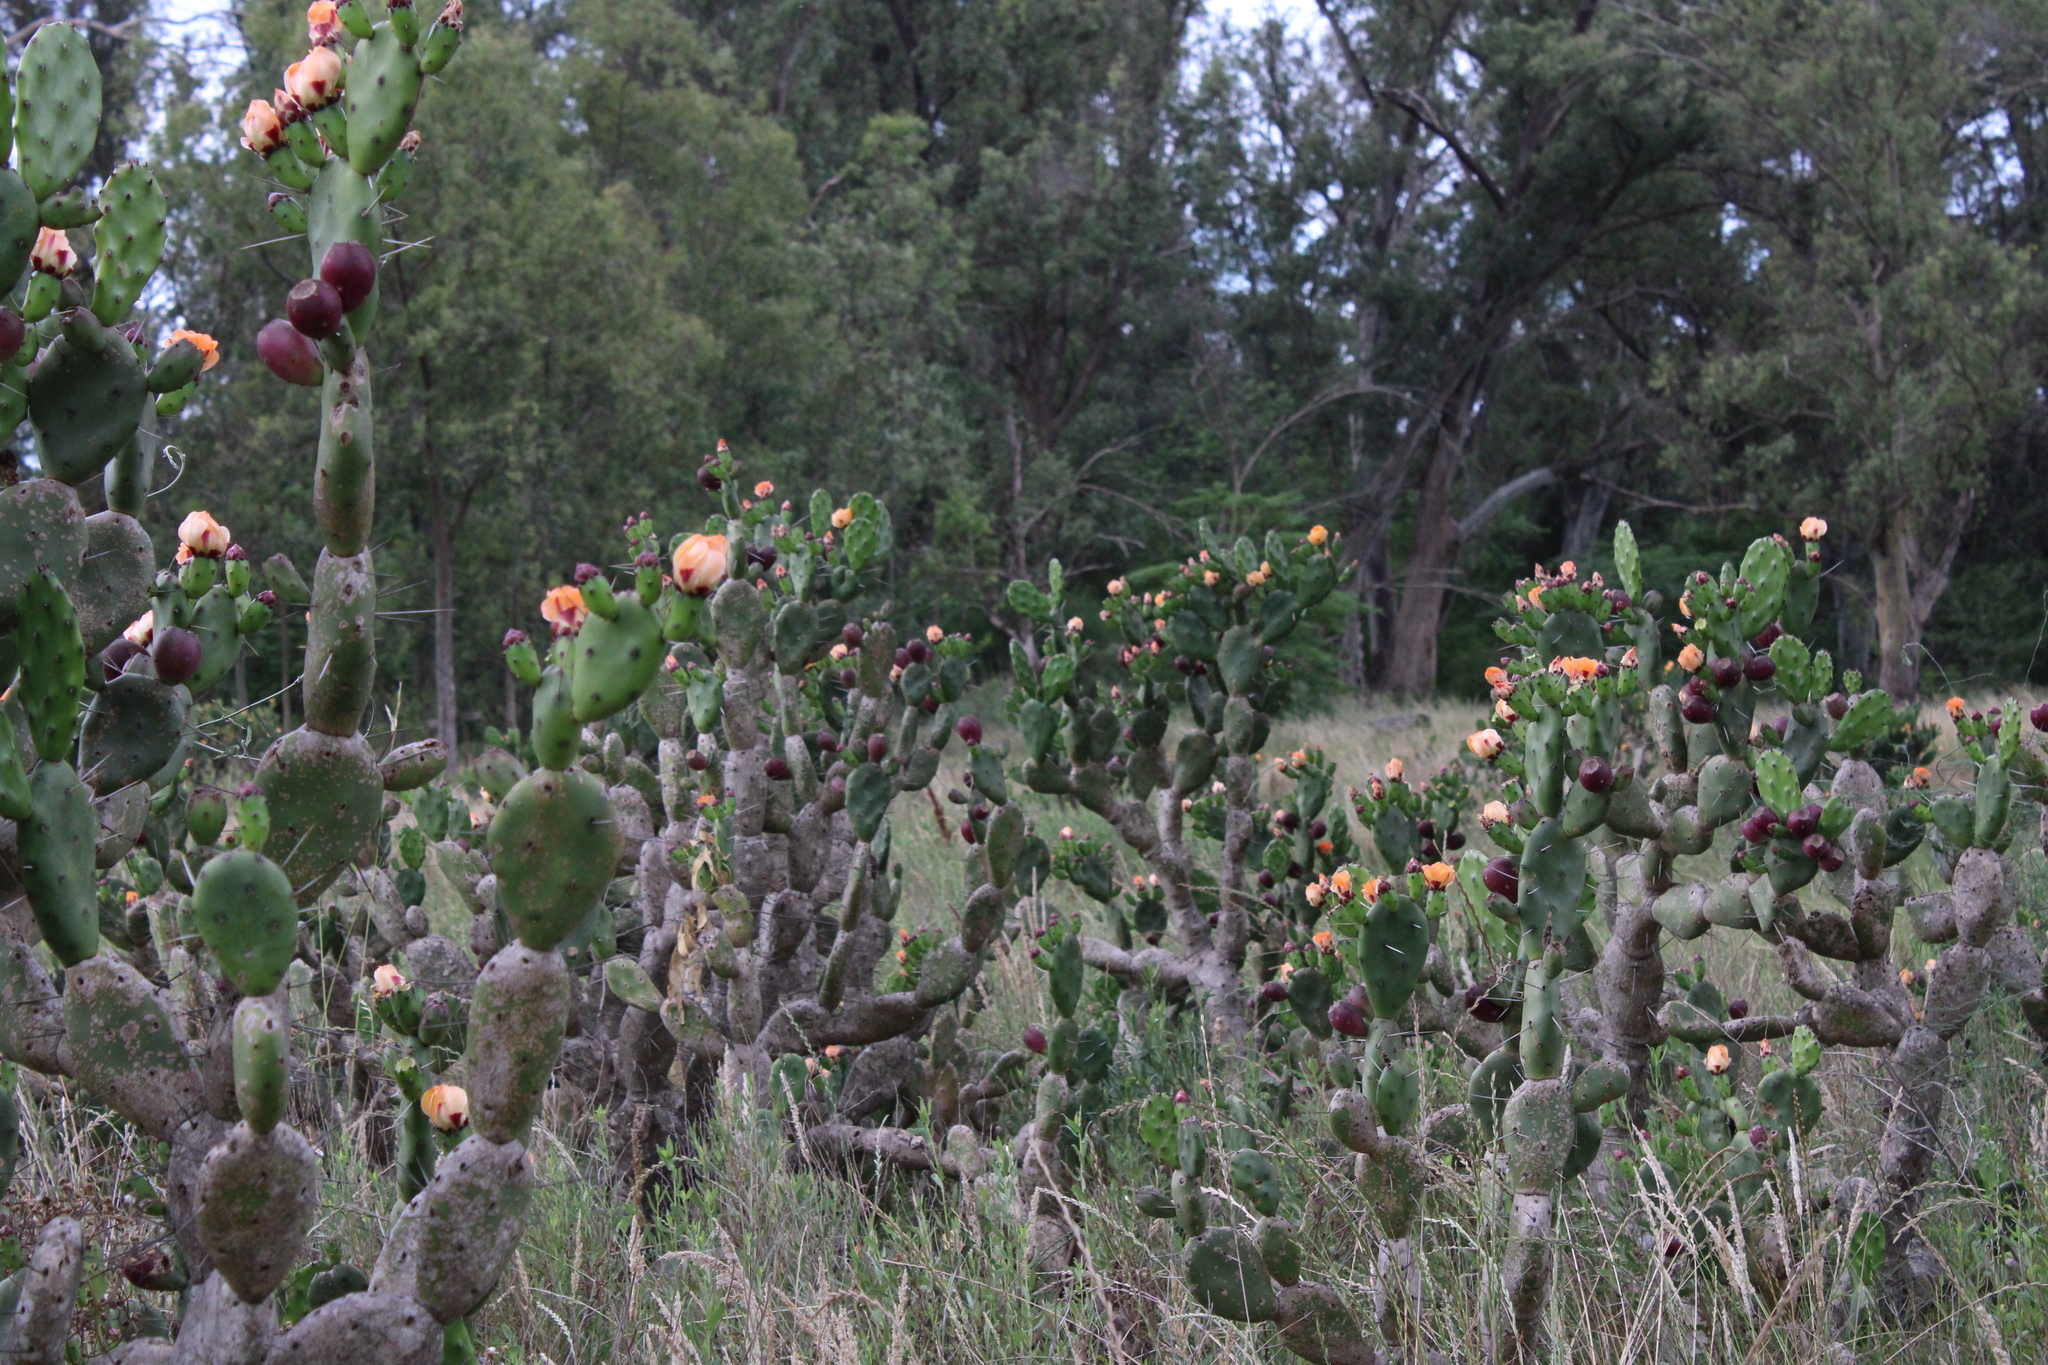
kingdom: Plantae
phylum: Tracheophyta
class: Magnoliopsida
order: Caryophyllales
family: Cactaceae
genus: Opuntia
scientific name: Opuntia elata
